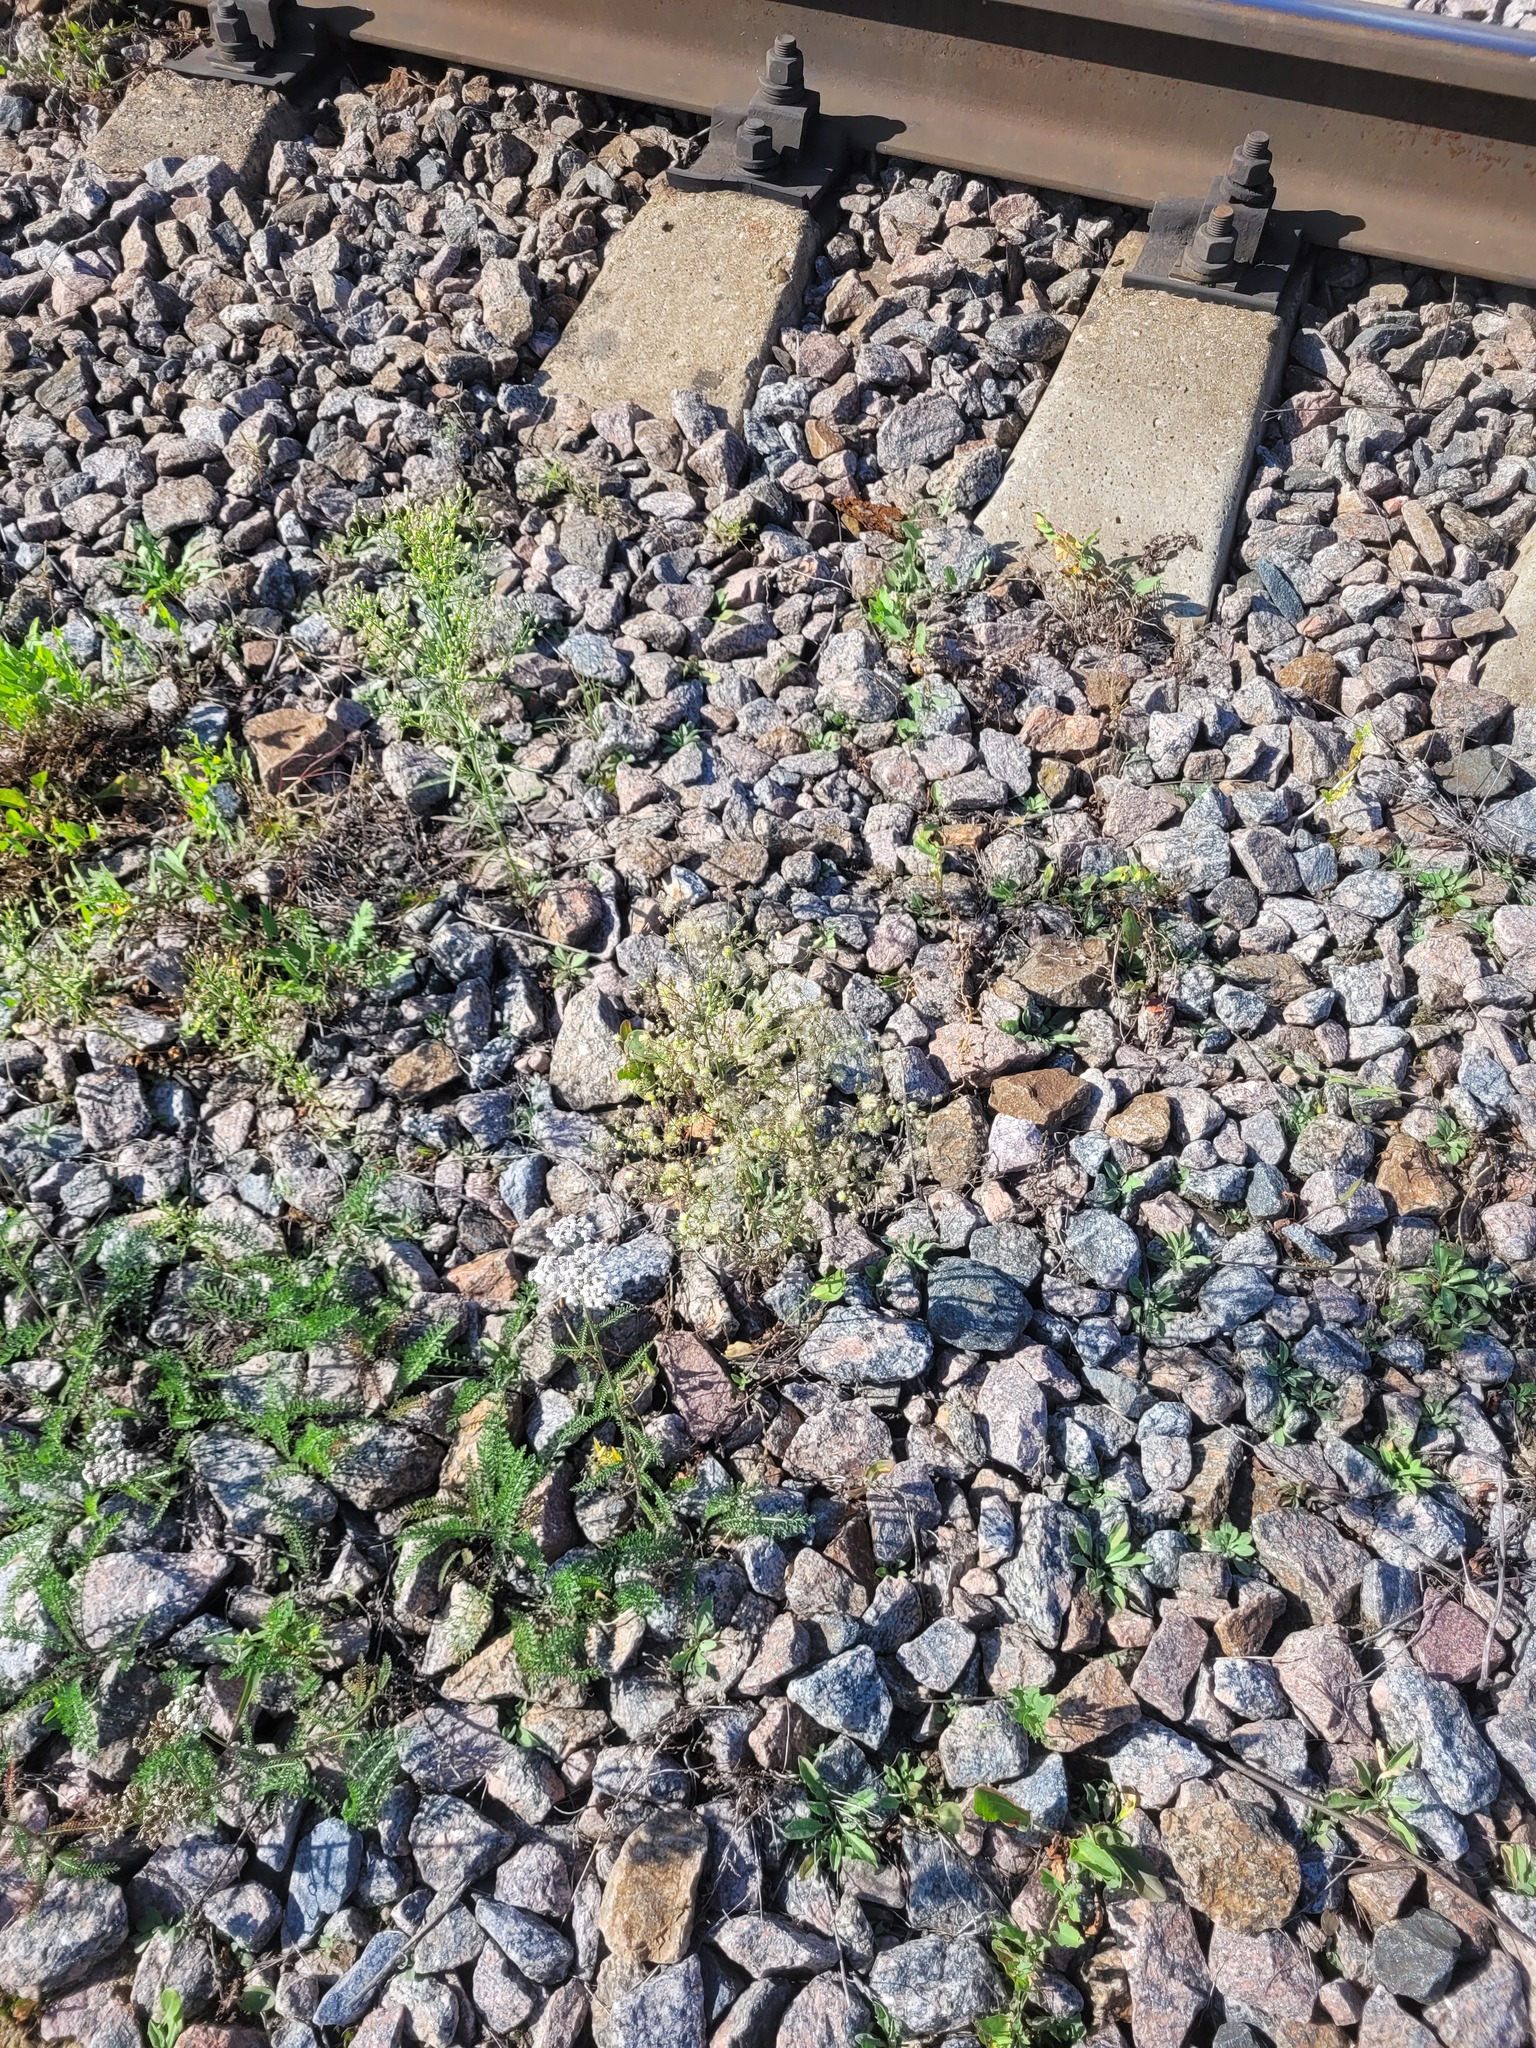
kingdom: Plantae
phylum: Tracheophyta
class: Magnoliopsida
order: Asterales
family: Asteraceae
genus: Erigeron
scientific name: Erigeron canadensis
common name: Canadian fleabane
